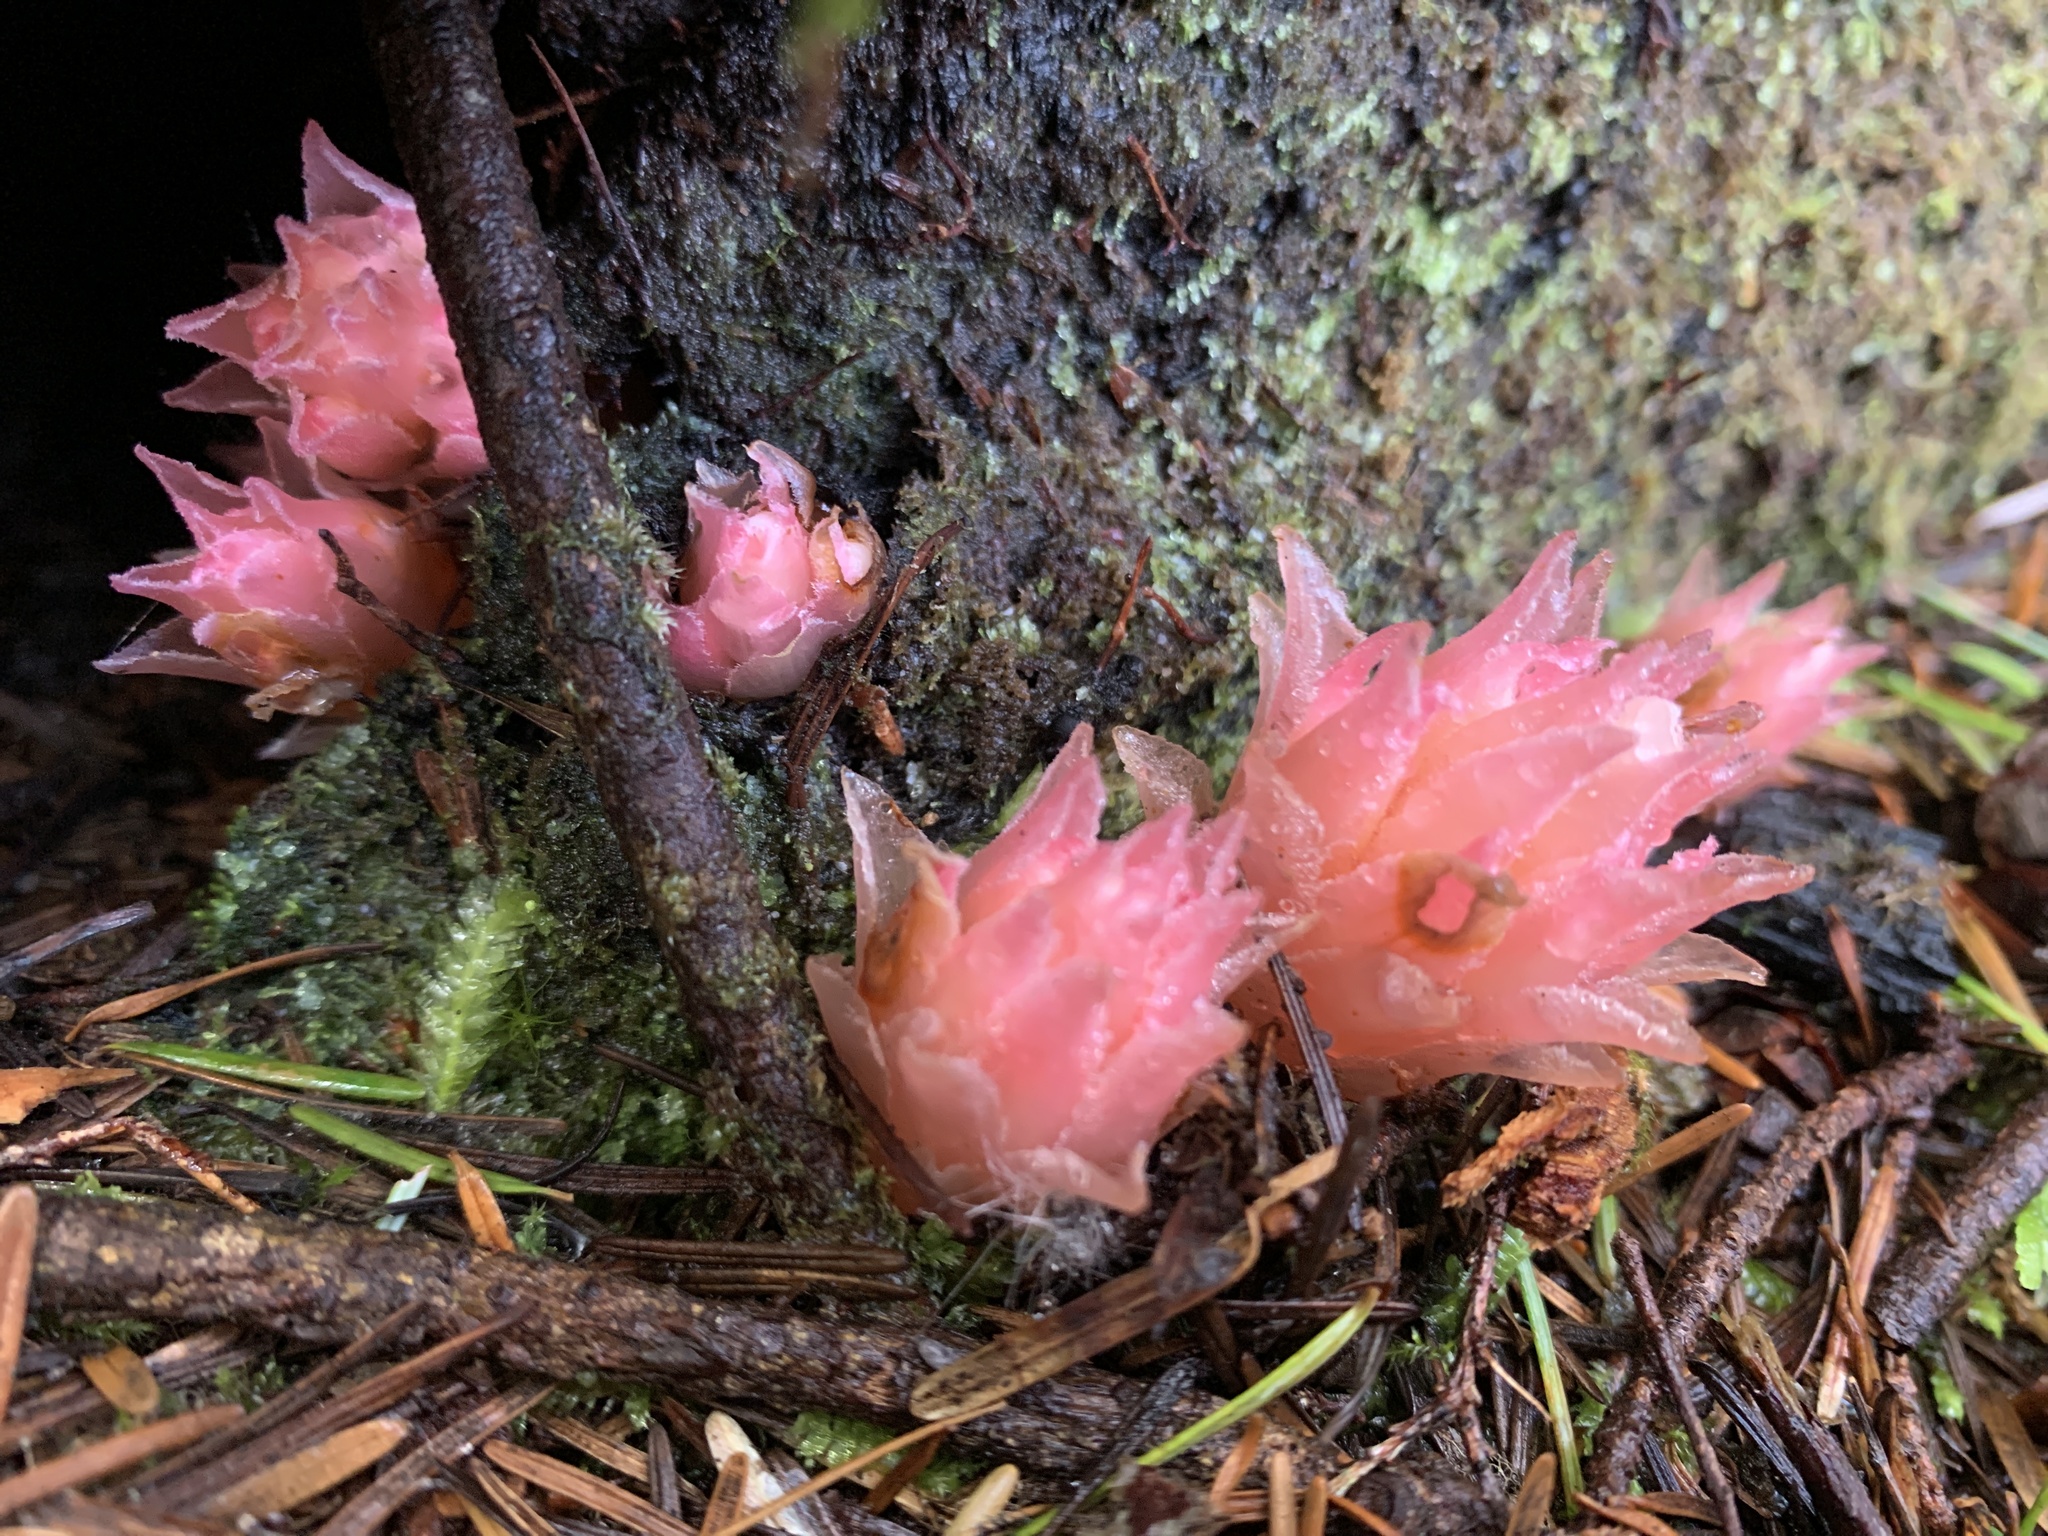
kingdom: Plantae
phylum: Tracheophyta
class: Magnoliopsida
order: Ericales
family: Ericaceae
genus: Hemitomes
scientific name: Hemitomes congestum
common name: Cone plant
